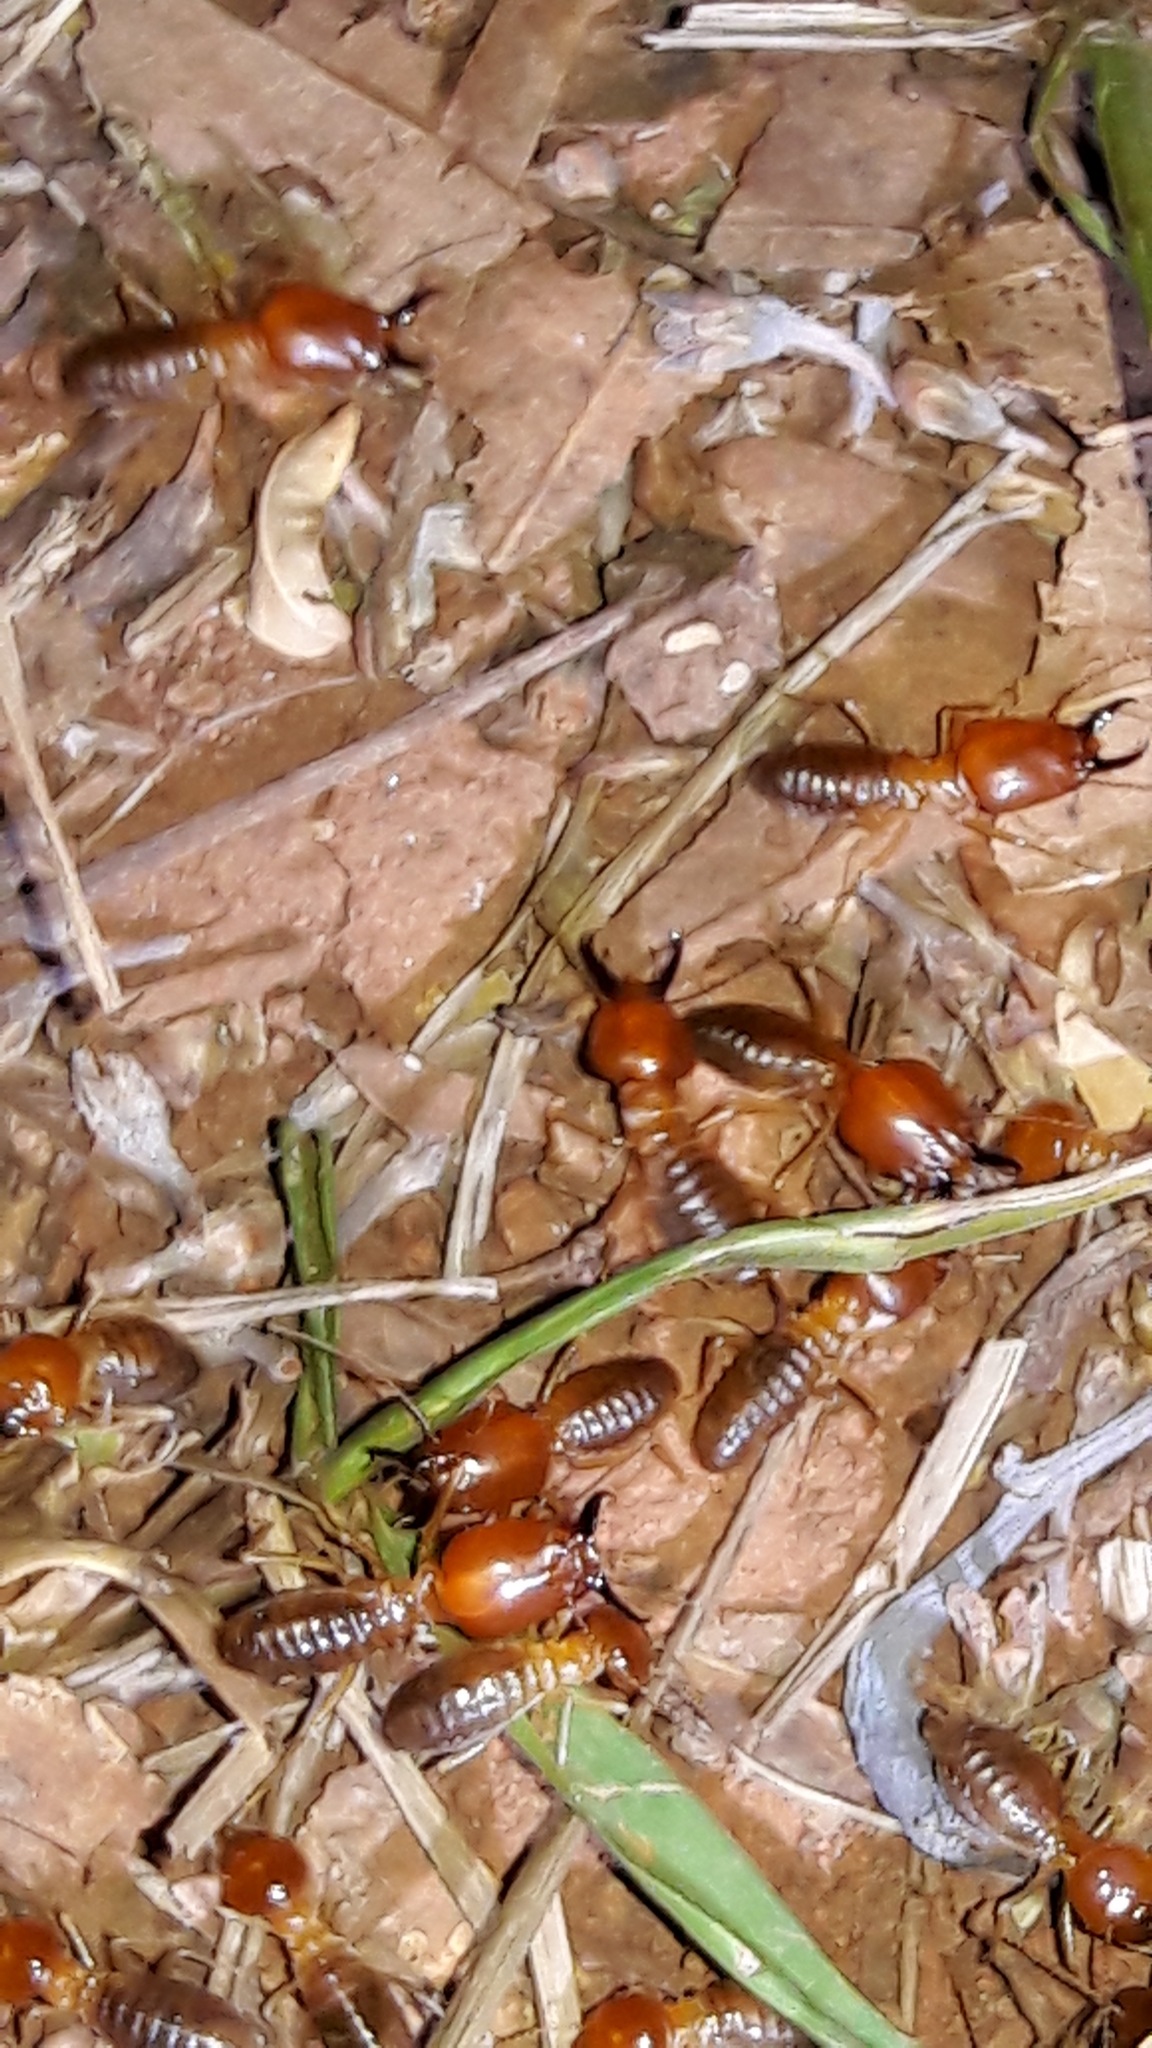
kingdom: Animalia
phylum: Arthropoda
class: Insecta
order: Blattodea
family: Termitidae
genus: Syntermes
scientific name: Syntermes molestus
